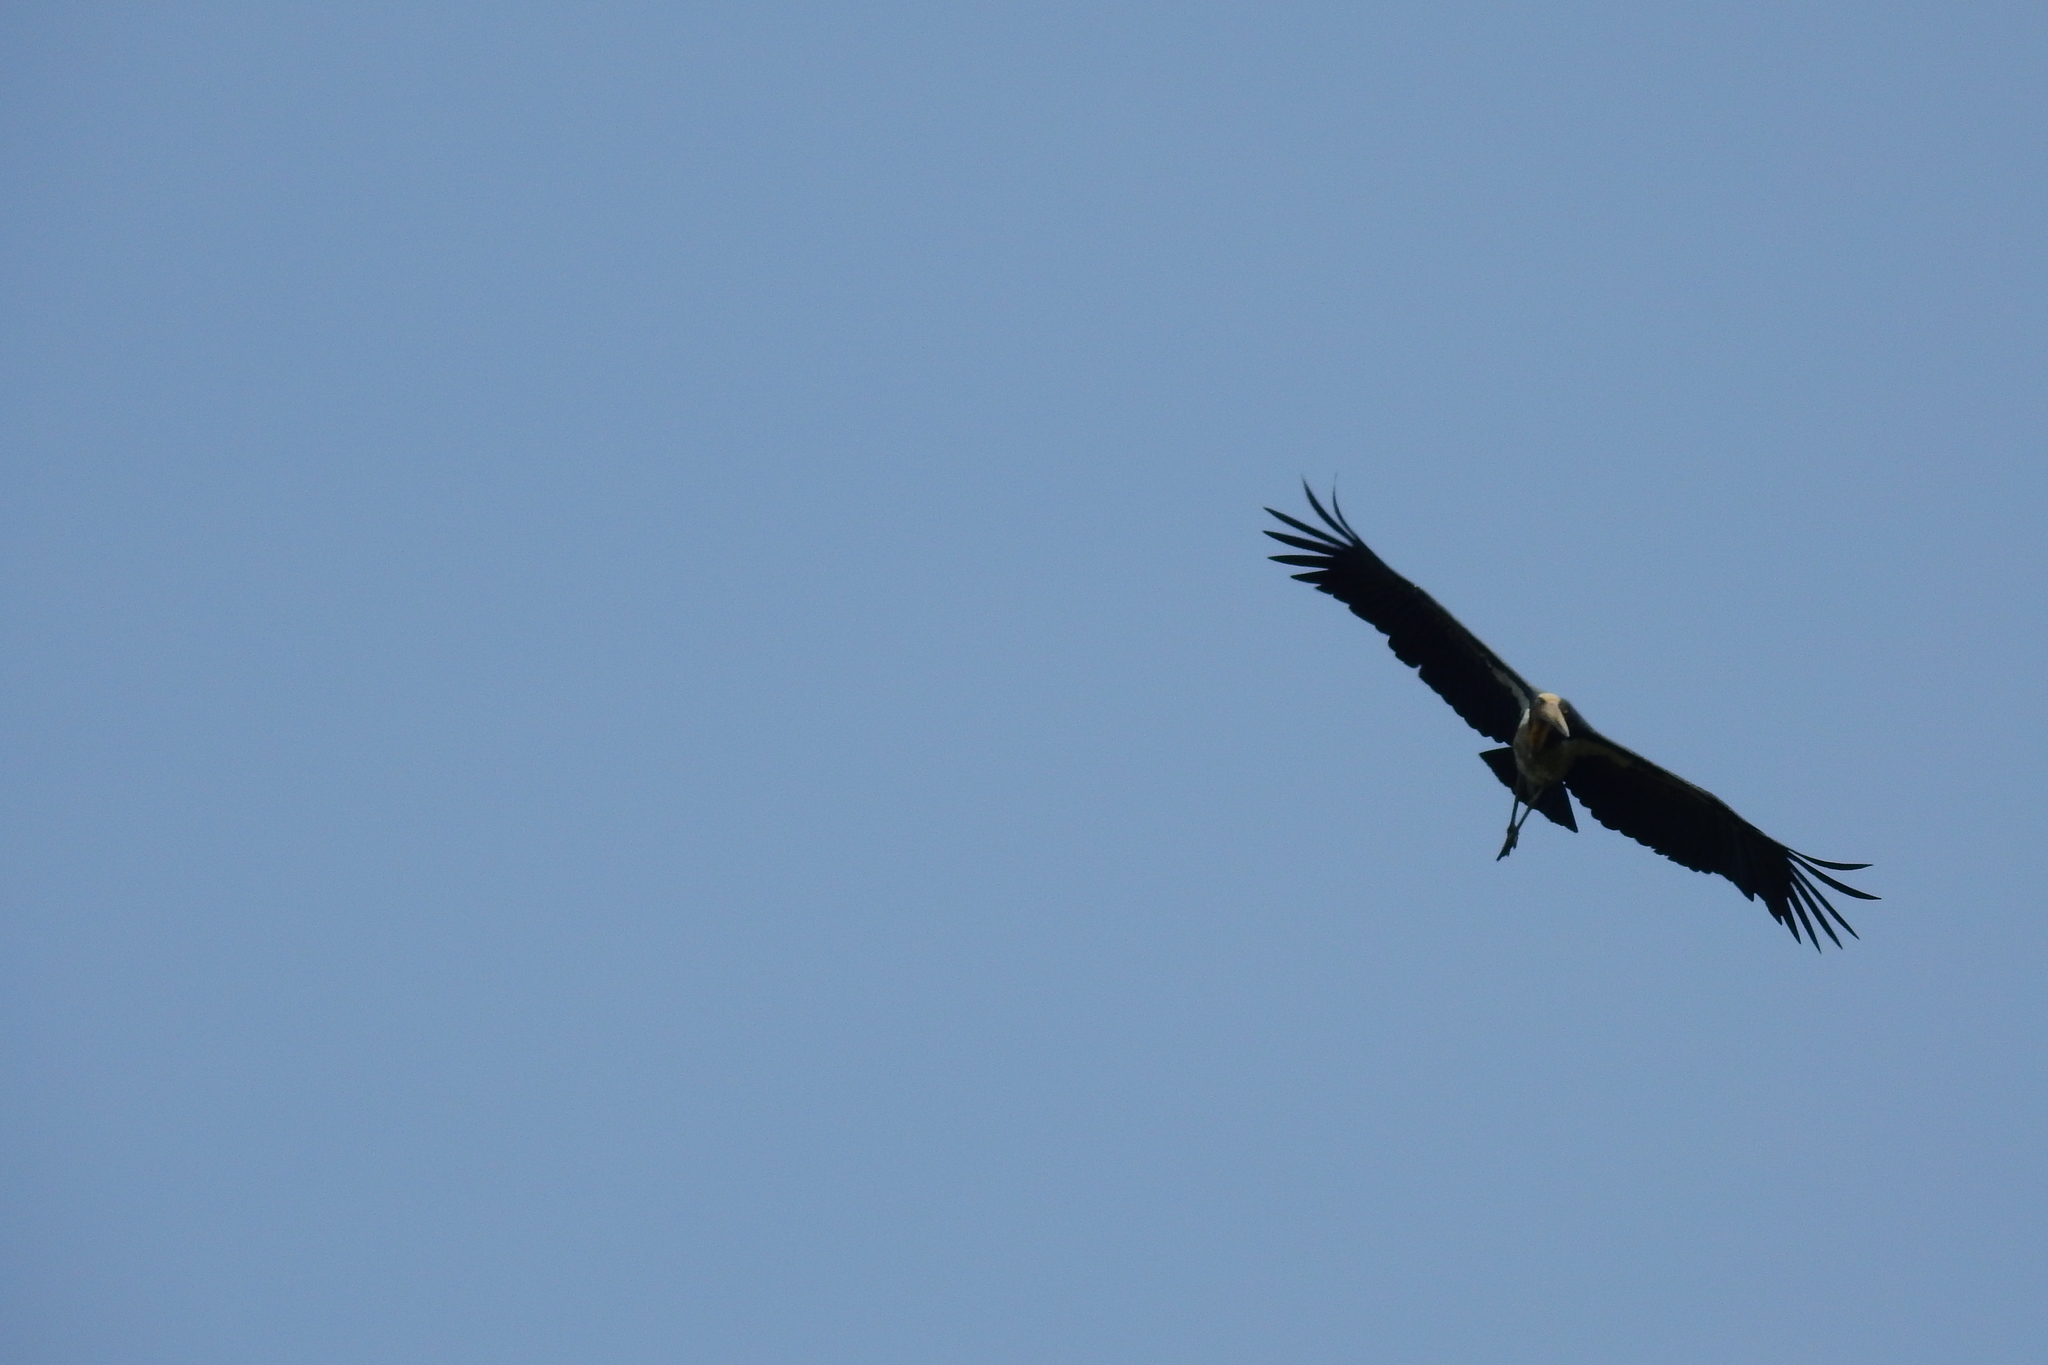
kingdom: Animalia
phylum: Chordata
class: Aves
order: Ciconiiformes
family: Ciconiidae
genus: Leptoptilos
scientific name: Leptoptilos javanicus
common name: Lesser adjutant
